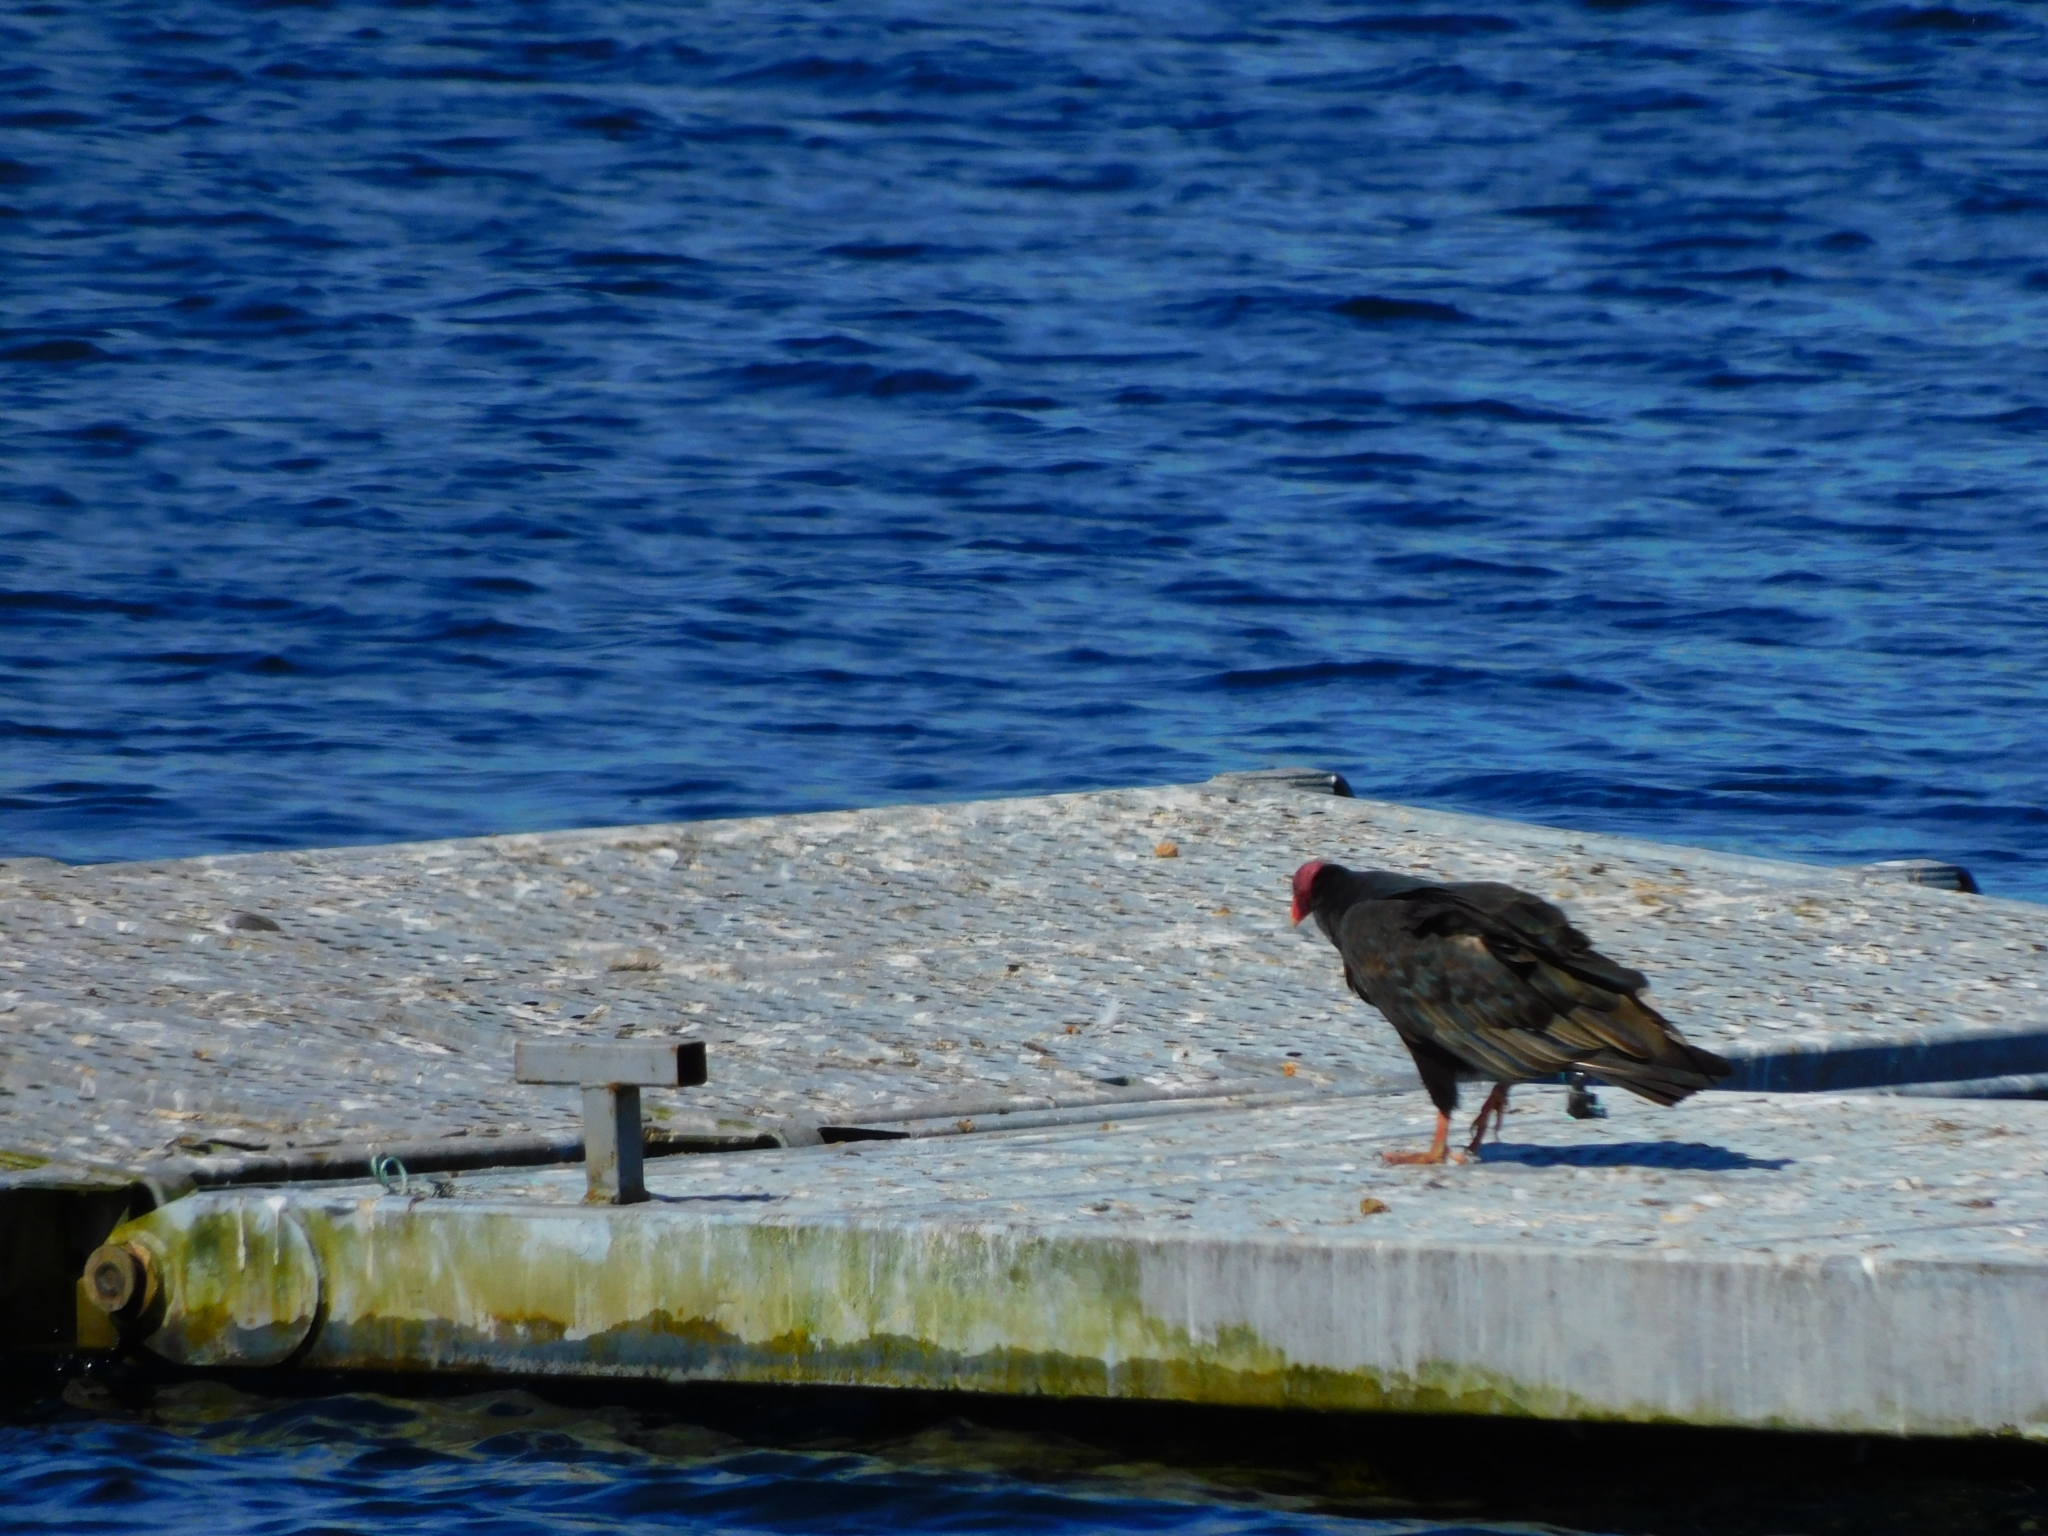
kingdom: Animalia
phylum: Chordata
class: Aves
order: Accipitriformes
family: Cathartidae
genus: Cathartes
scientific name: Cathartes aura
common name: Turkey vulture
